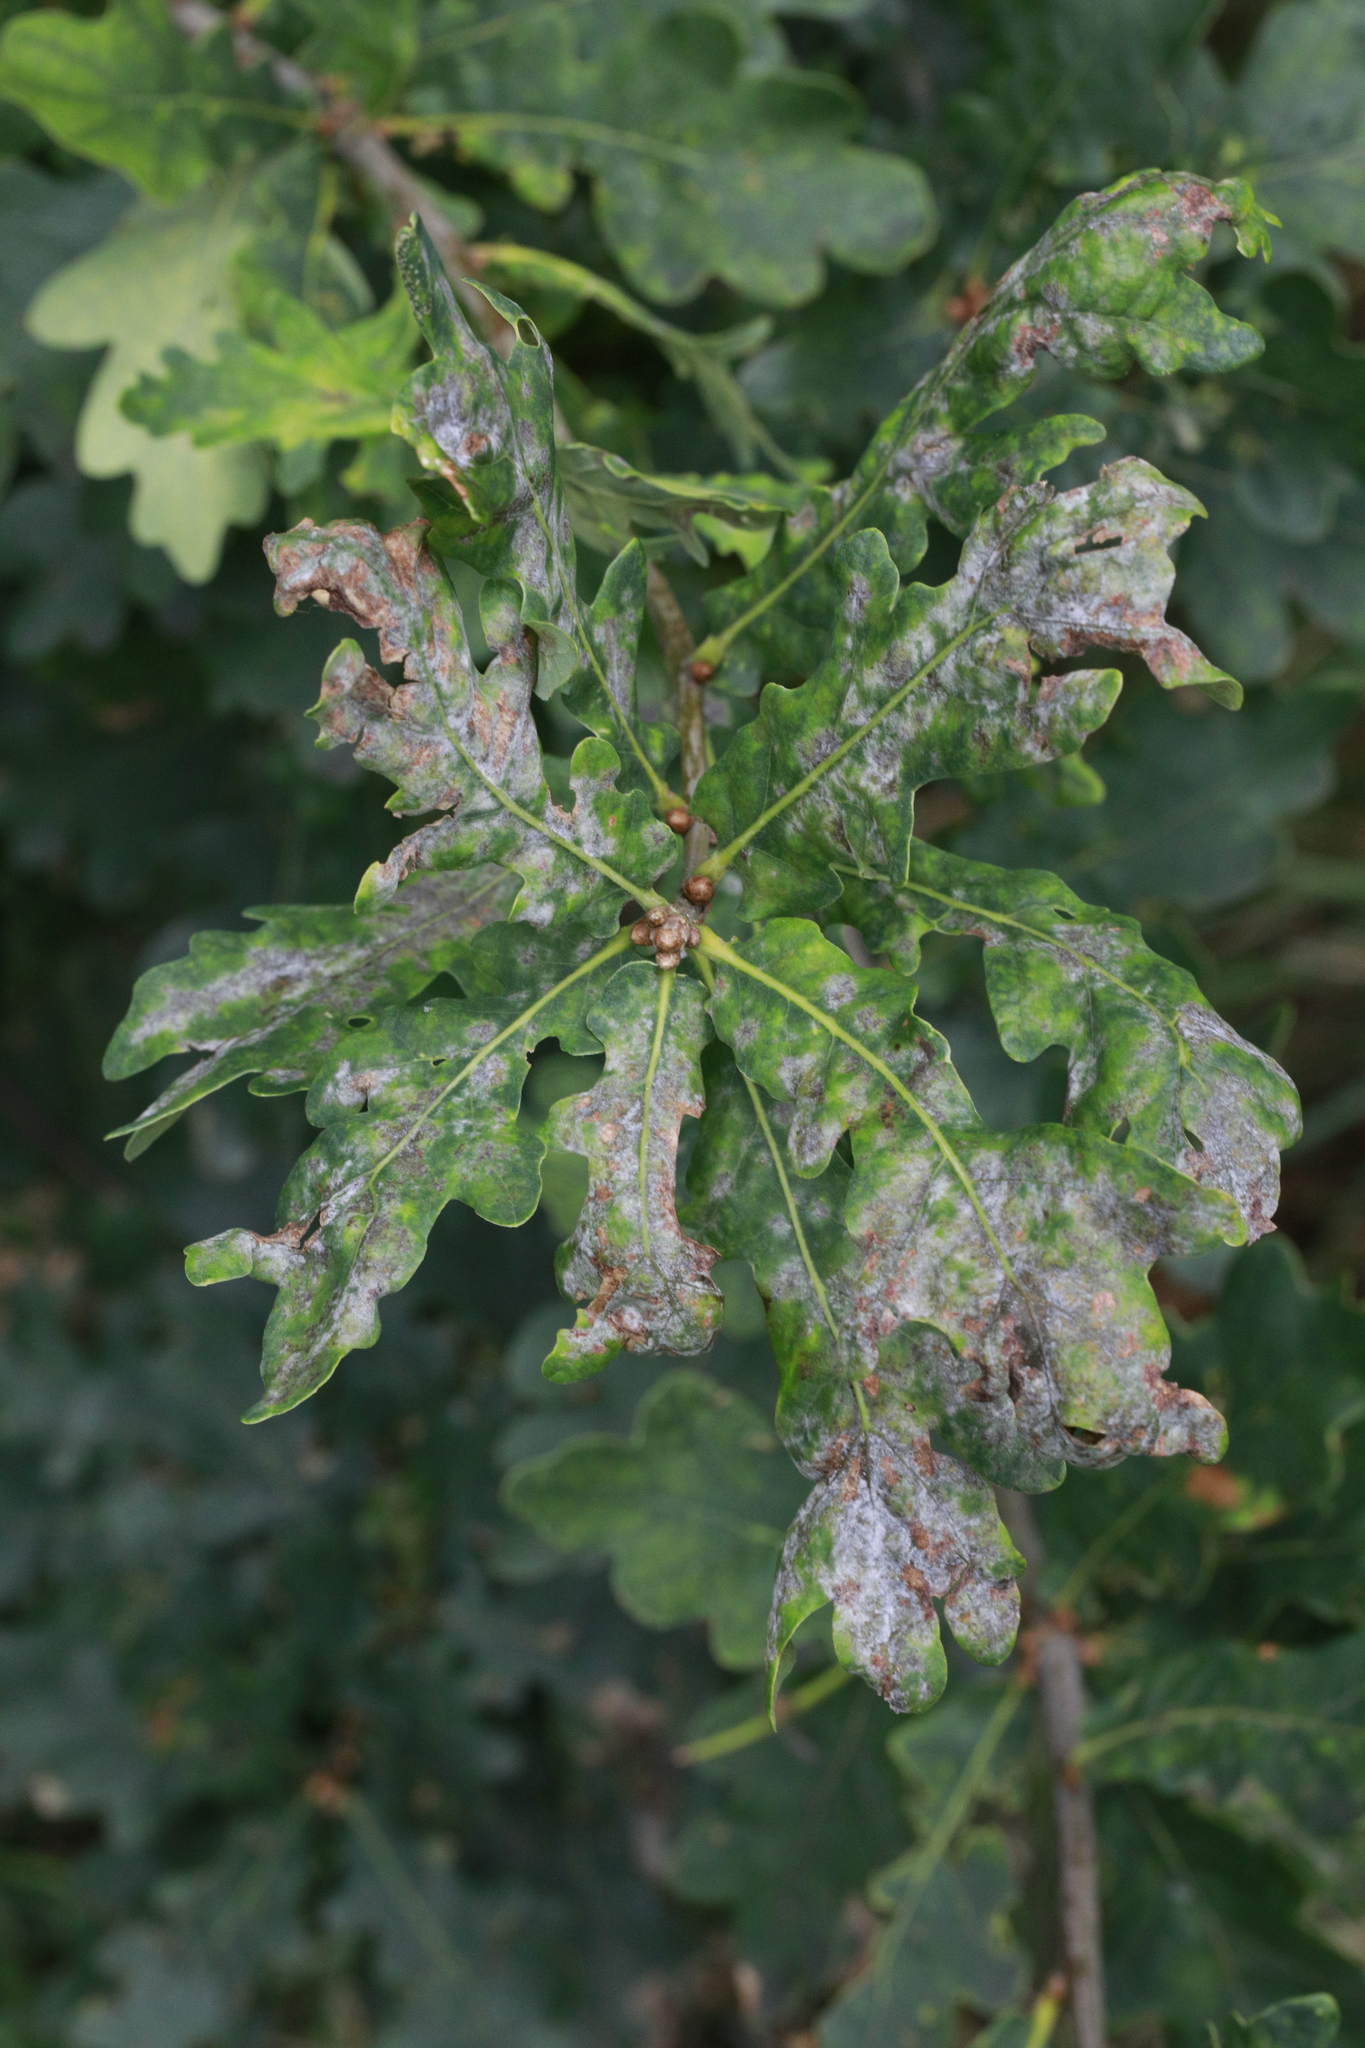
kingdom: Fungi
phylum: Ascomycota
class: Leotiomycetes
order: Helotiales
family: Erysiphaceae
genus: Erysiphe
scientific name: Erysiphe alphitoides
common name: Oak mildew
